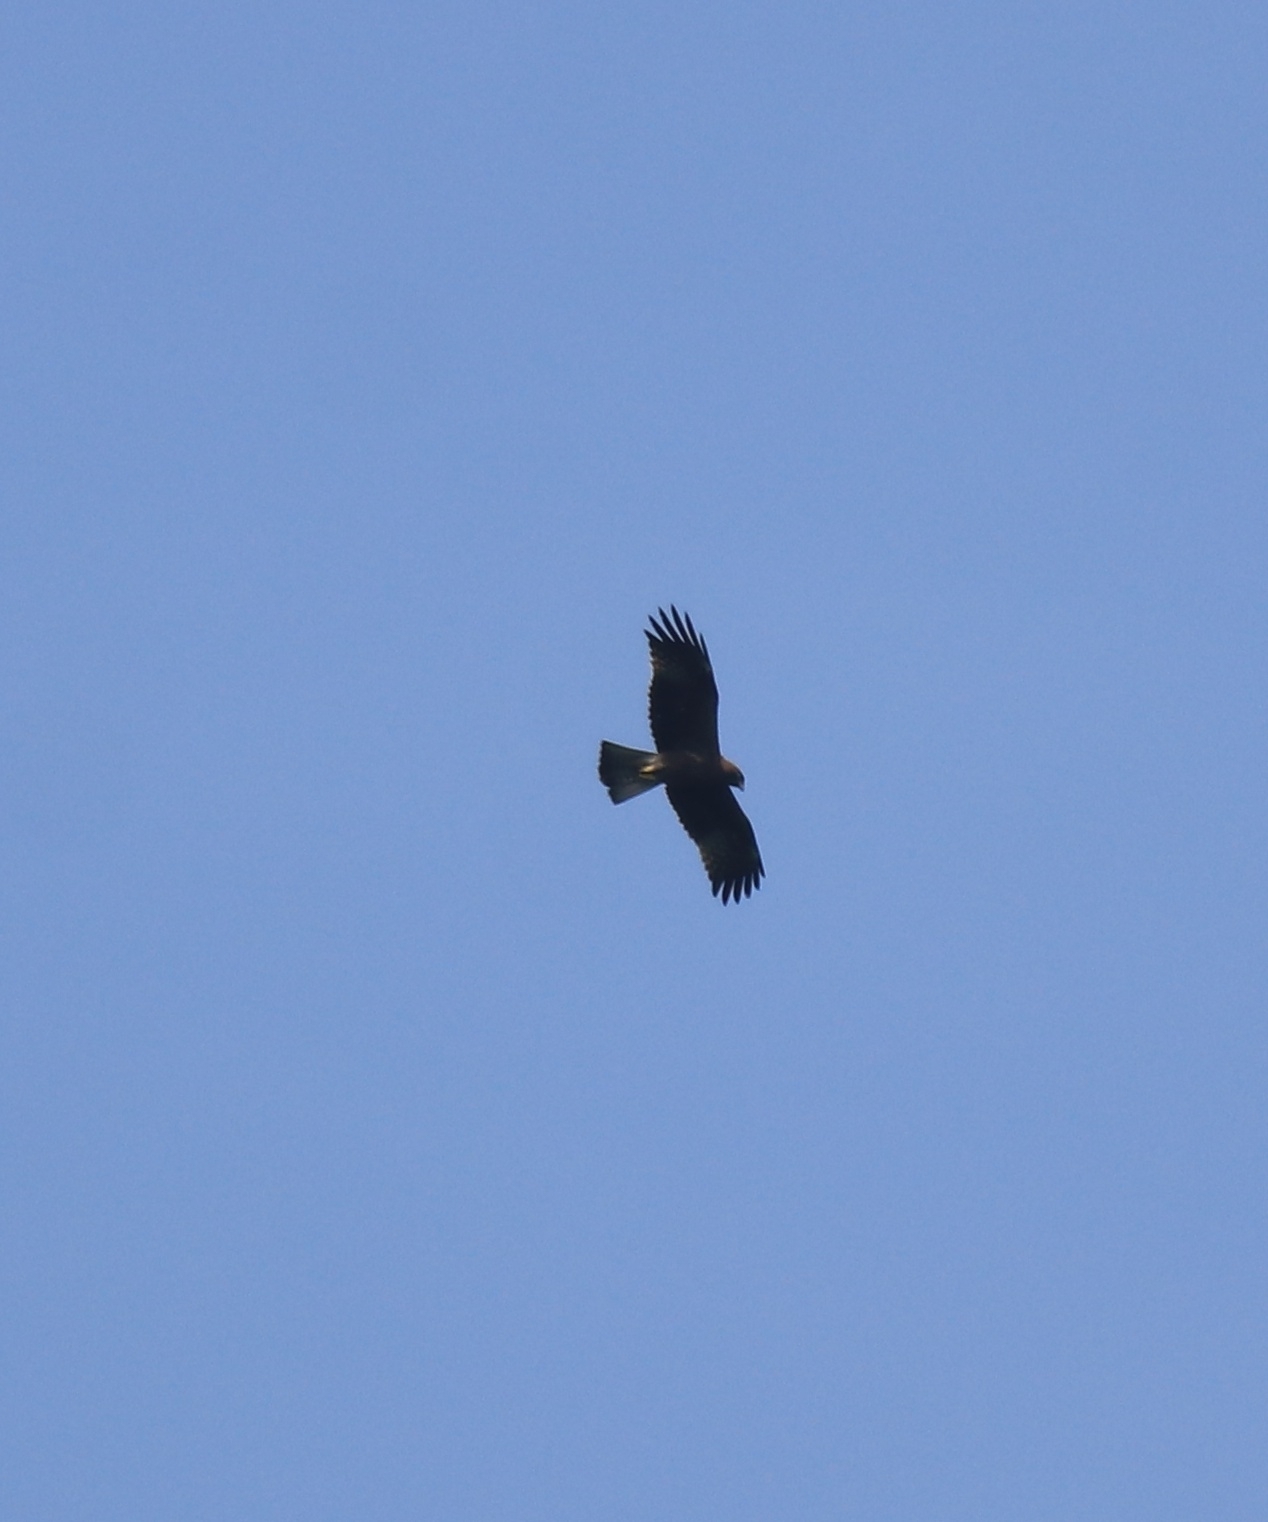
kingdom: Animalia
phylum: Chordata
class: Aves
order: Accipitriformes
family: Accipitridae
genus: Hieraaetus
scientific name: Hieraaetus pennatus
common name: Booted eagle
